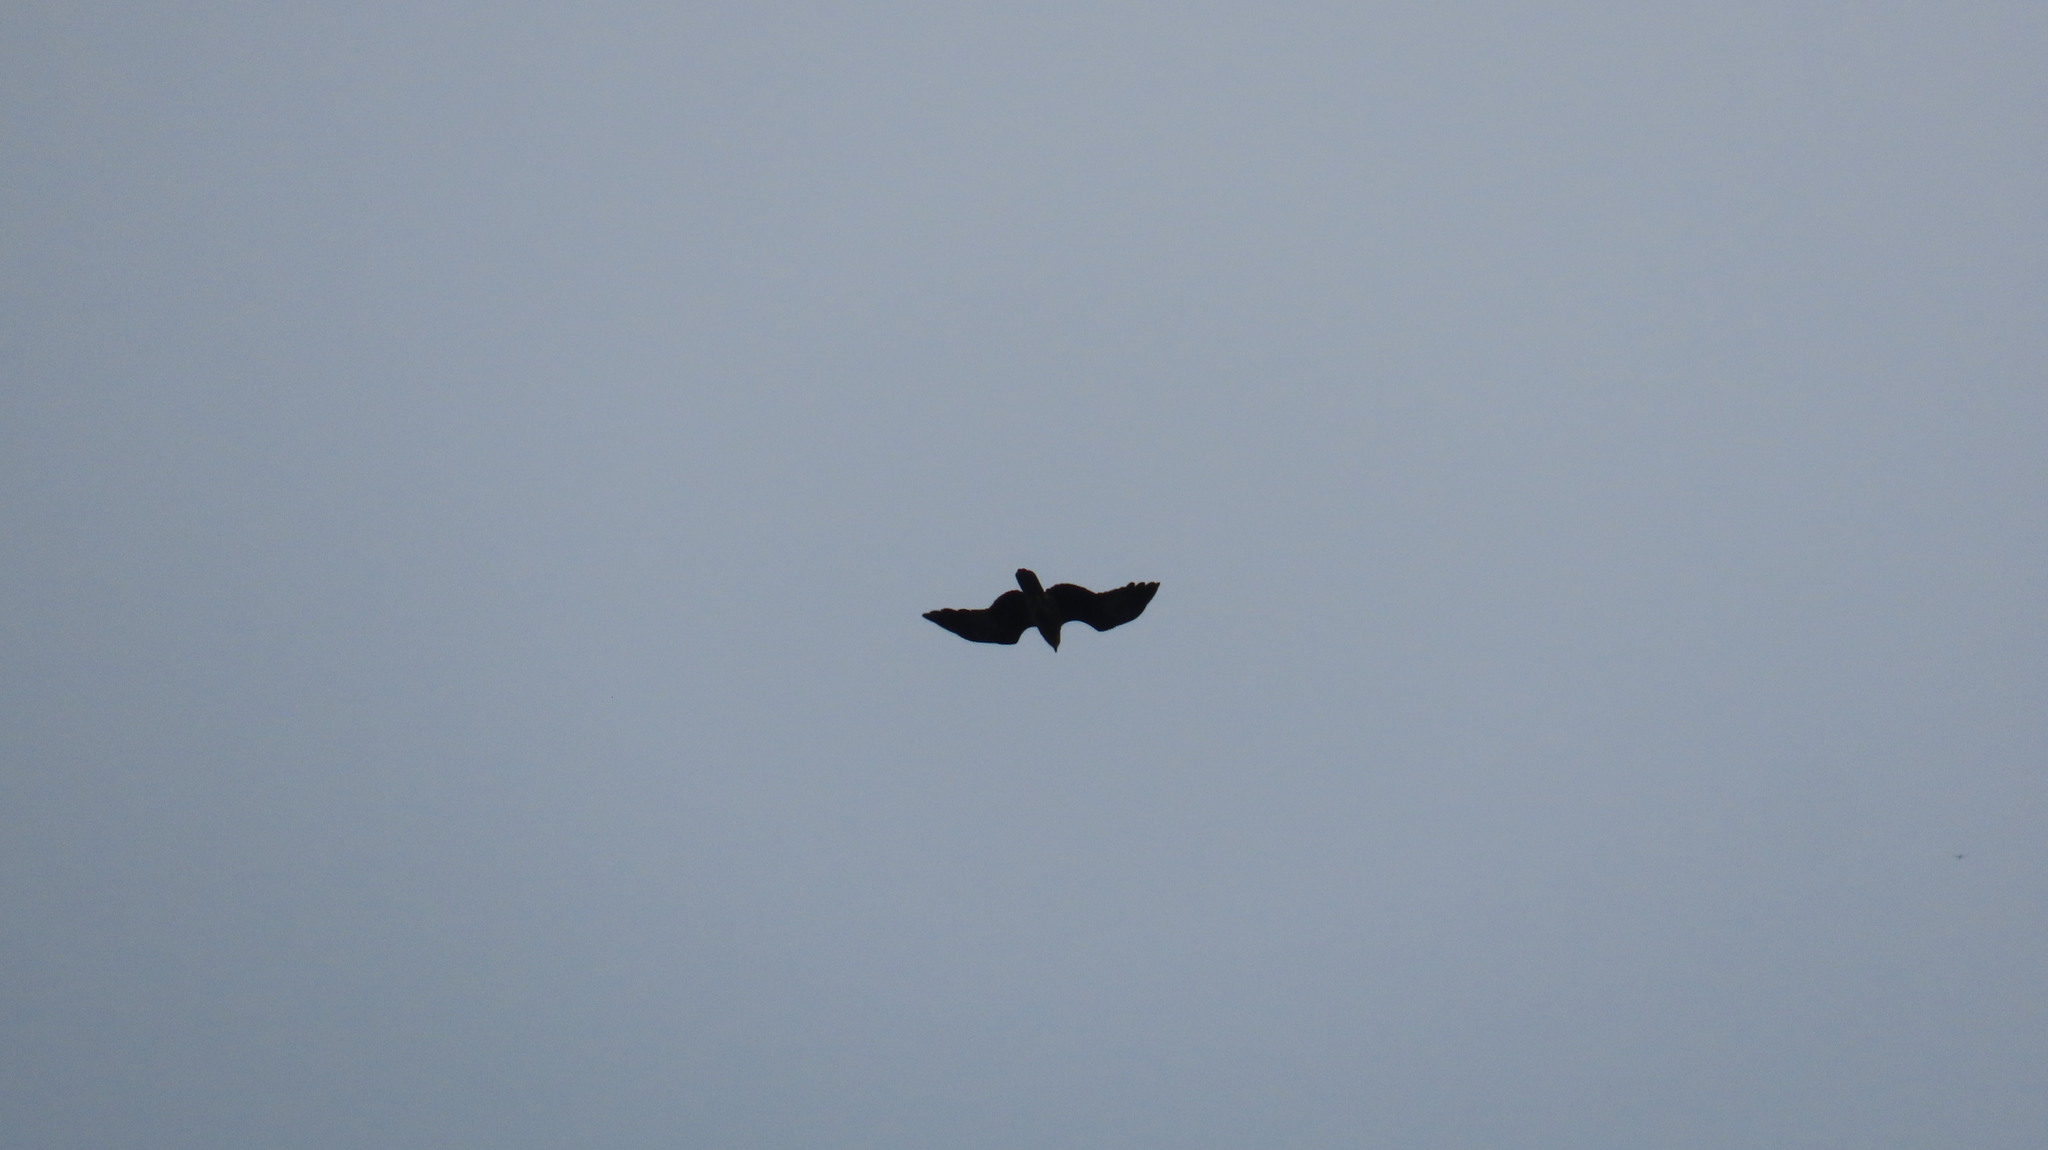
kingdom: Animalia
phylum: Chordata
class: Aves
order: Accipitriformes
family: Accipitridae
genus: Haliastur
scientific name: Haliastur indus
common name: Brahminy kite
